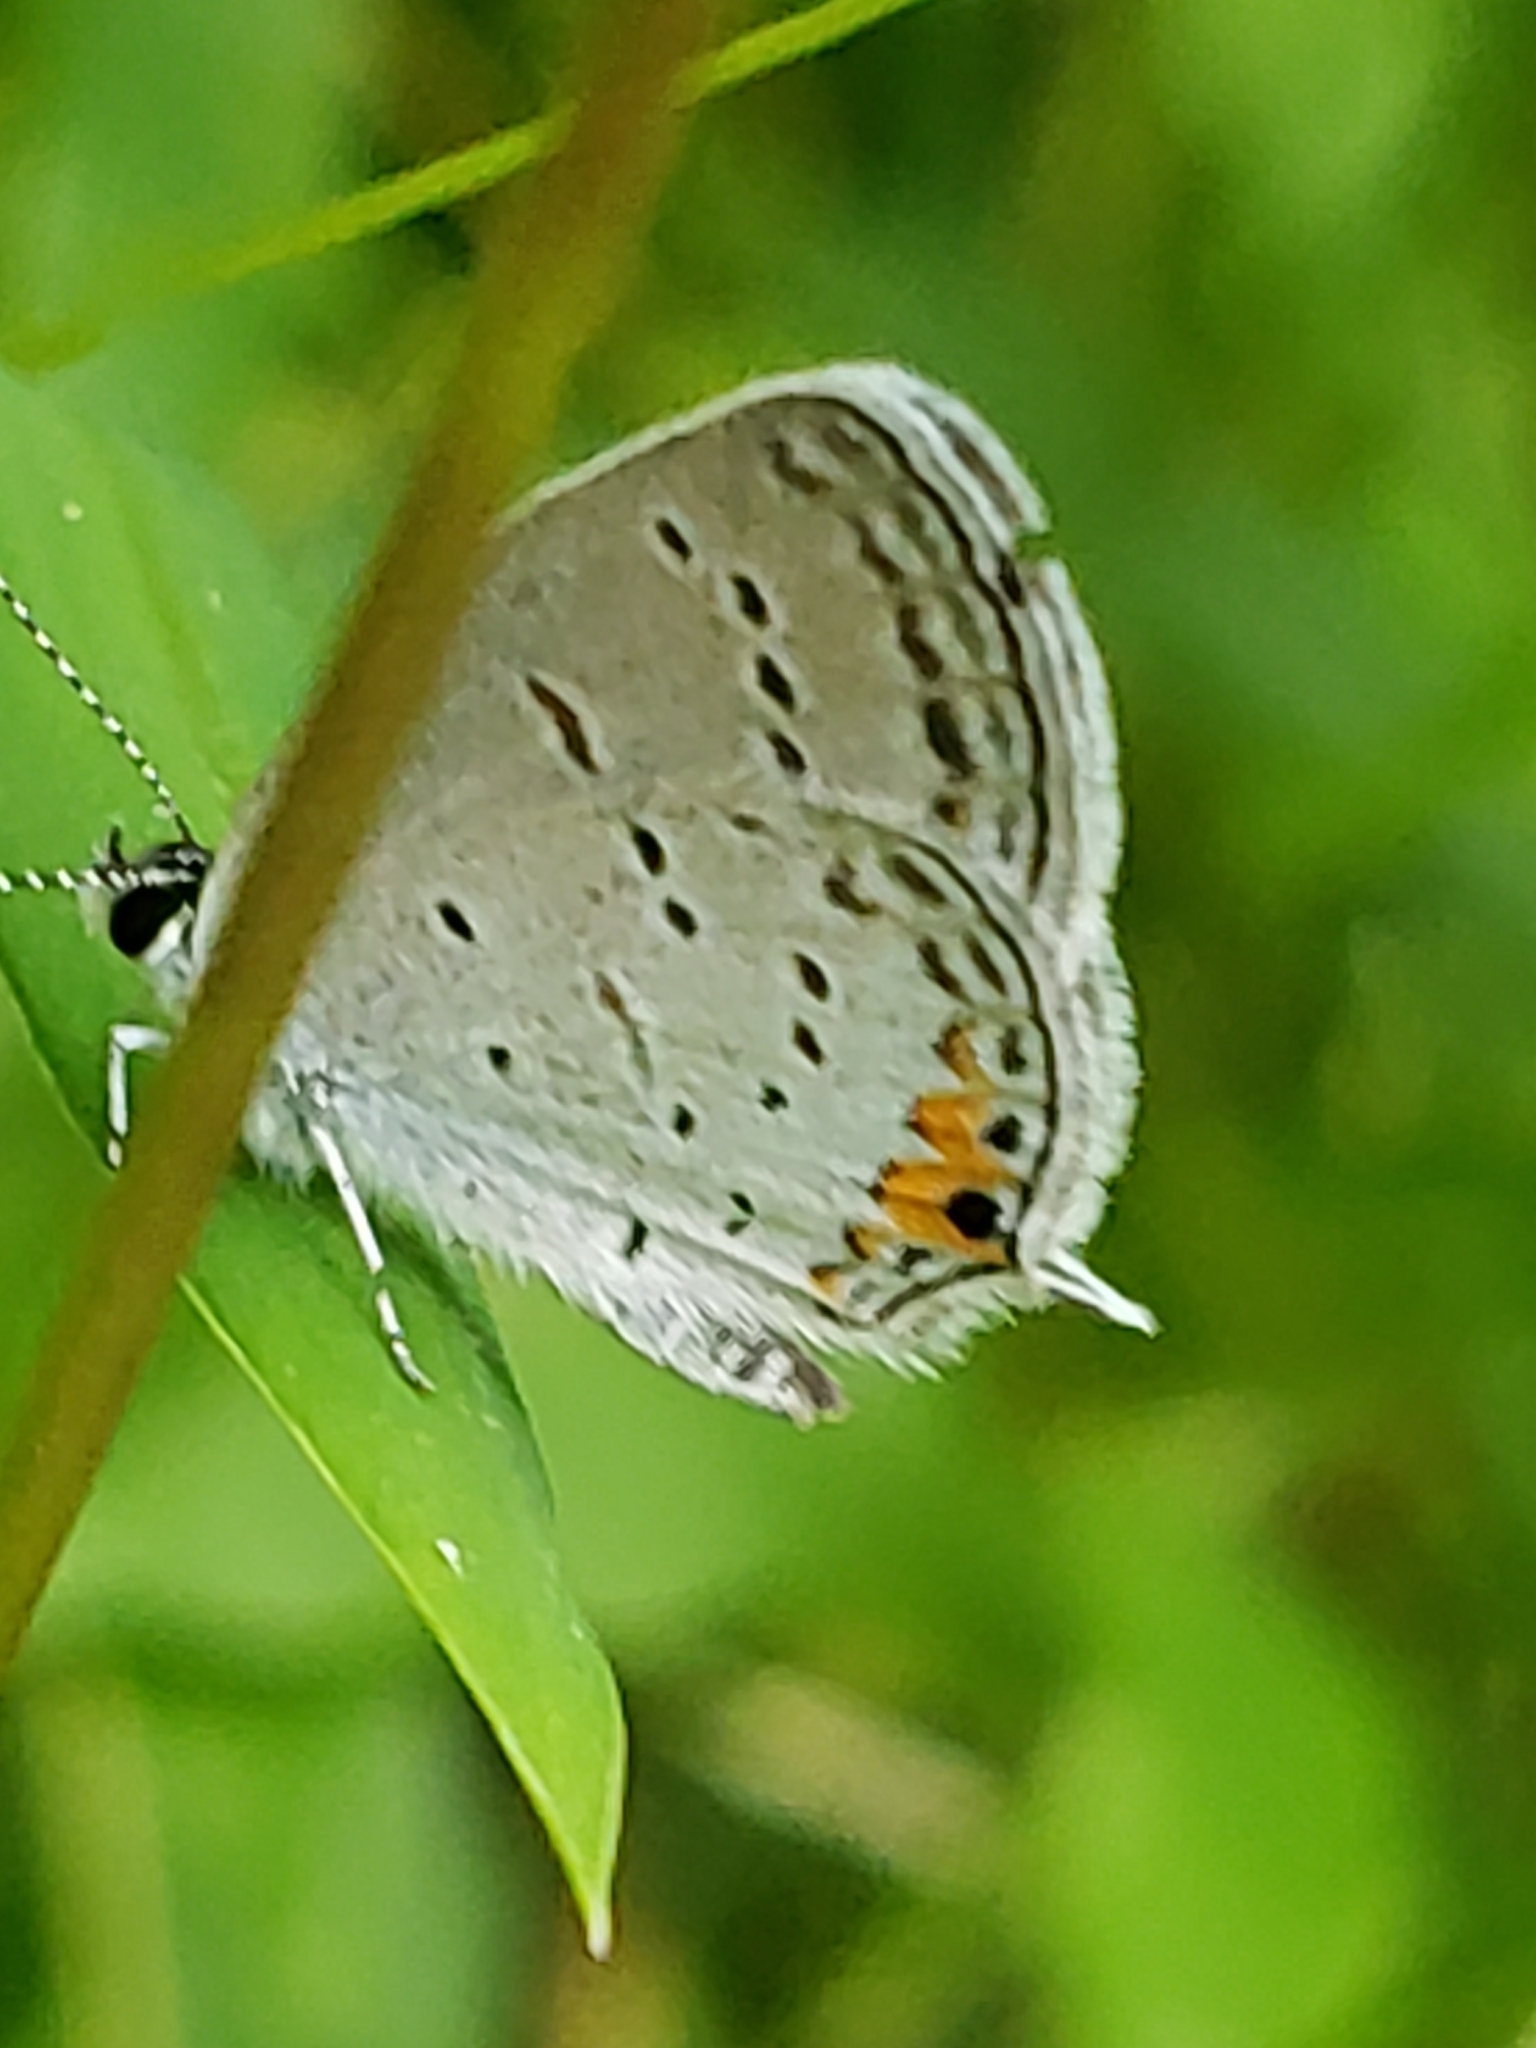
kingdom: Animalia
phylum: Arthropoda
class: Insecta
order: Lepidoptera
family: Lycaenidae
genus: Elkalyce
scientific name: Elkalyce comyntas
